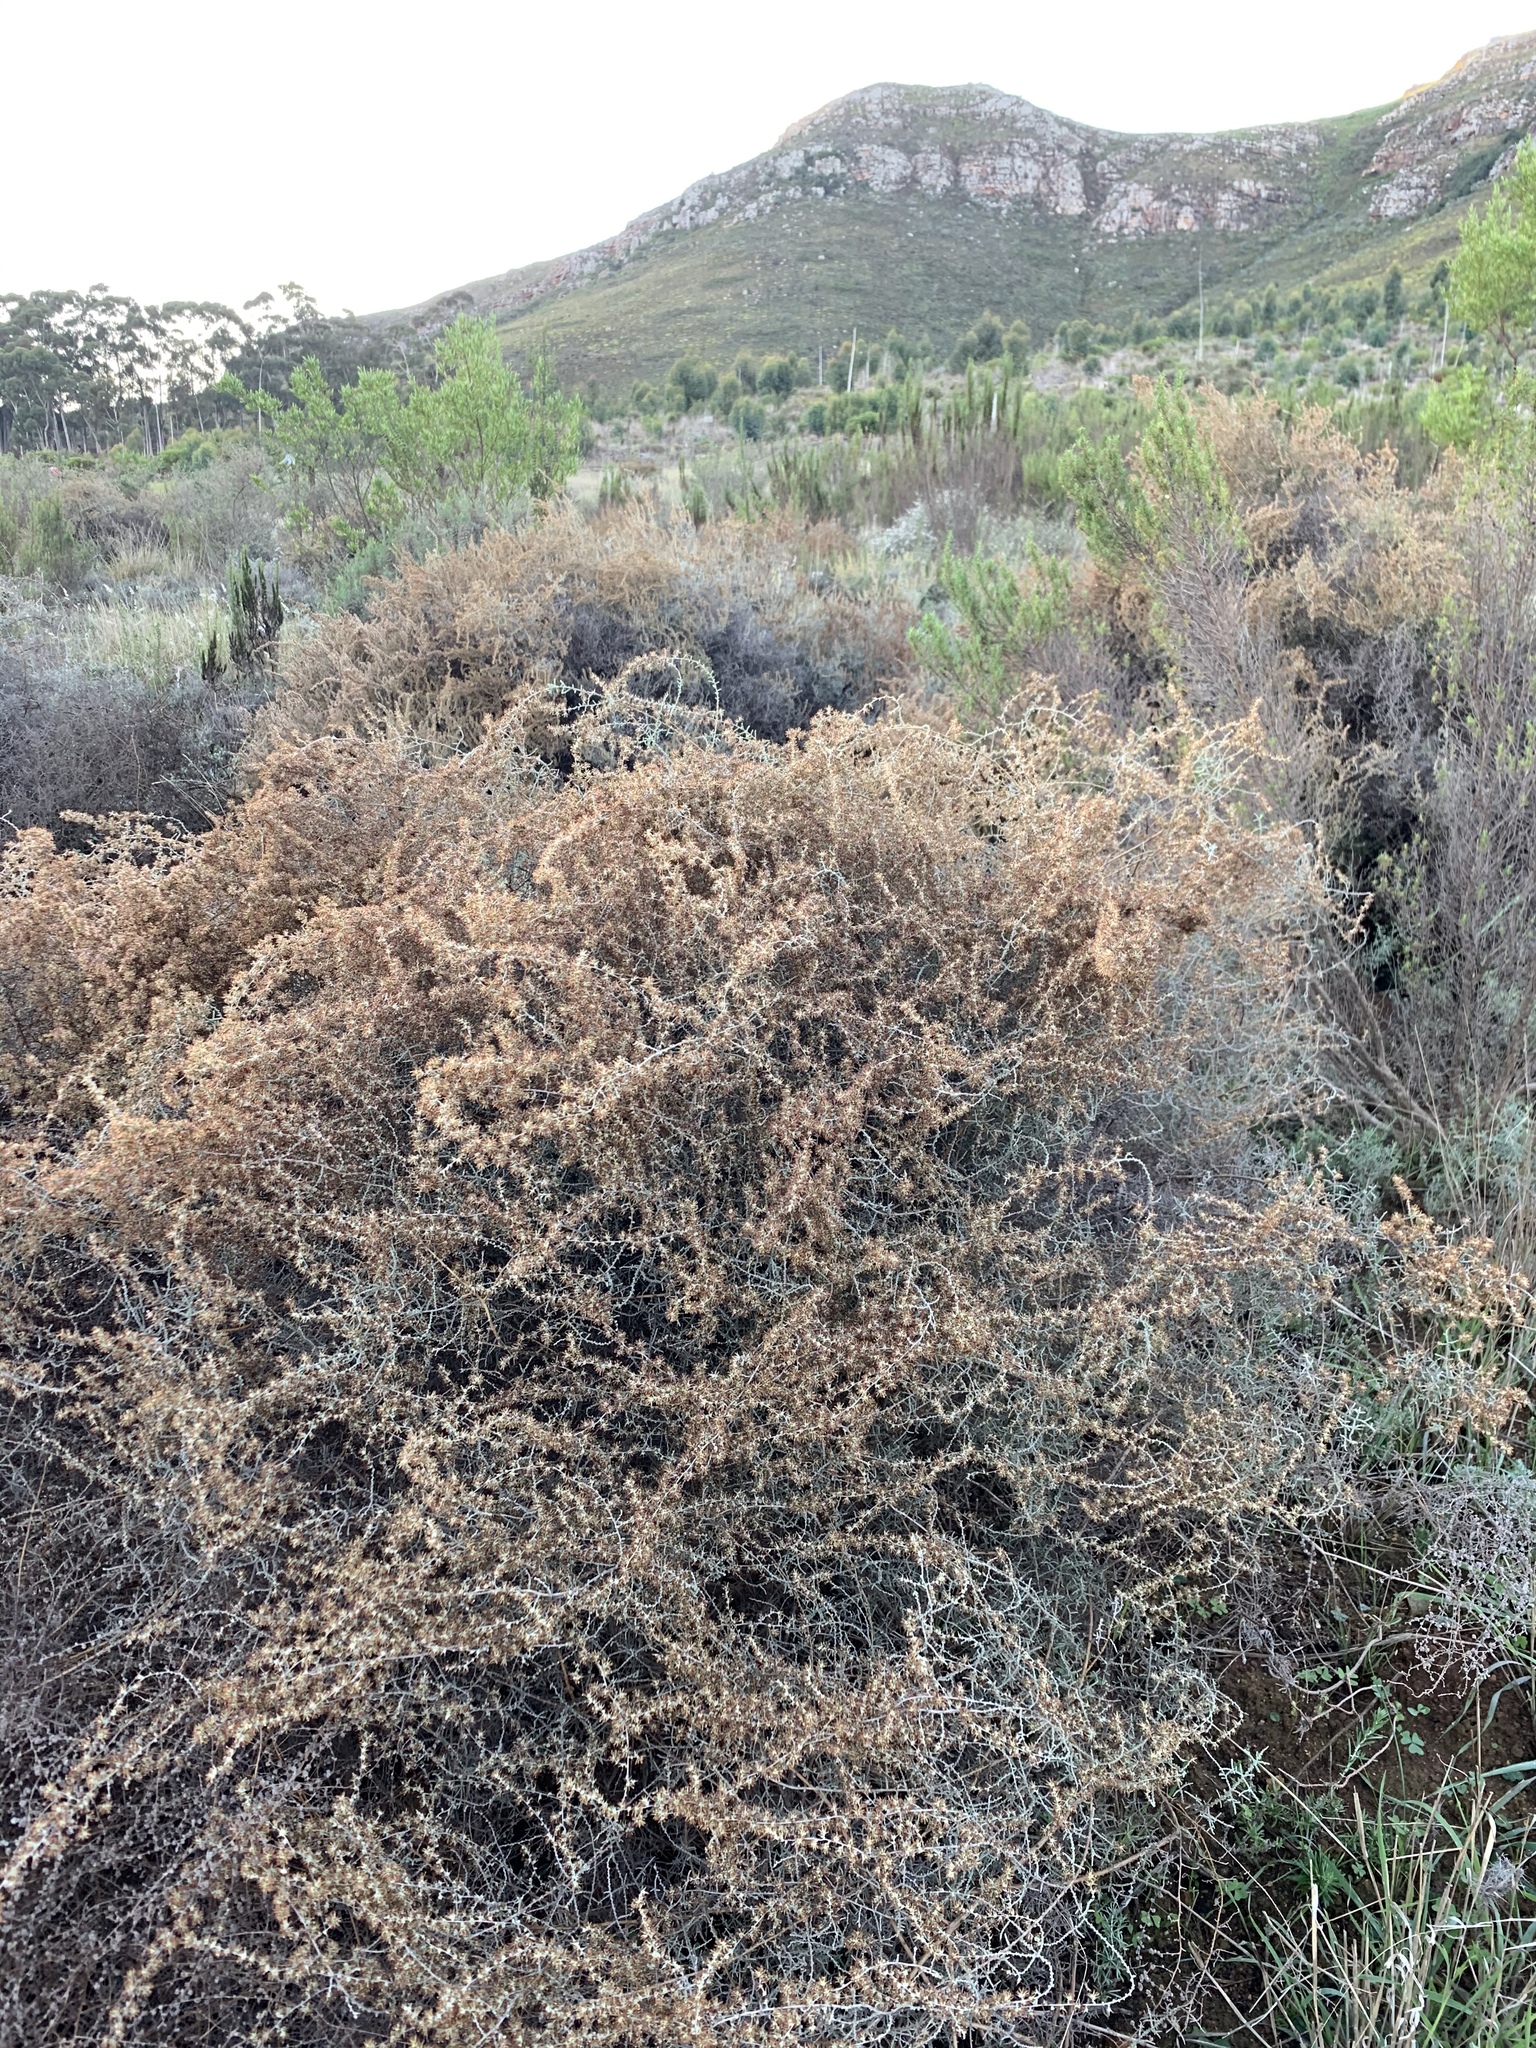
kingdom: Plantae
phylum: Tracheophyta
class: Magnoliopsida
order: Asterales
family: Asteraceae
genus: Seriphium
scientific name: Seriphium plumosum
